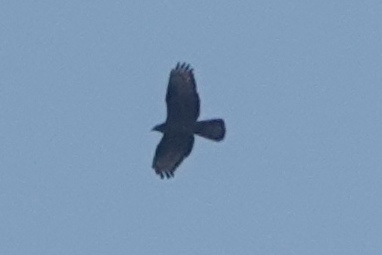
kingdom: Animalia
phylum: Chordata
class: Aves
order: Accipitriformes
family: Accipitridae
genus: Pernis
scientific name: Pernis apivorus
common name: European honey buzzard
